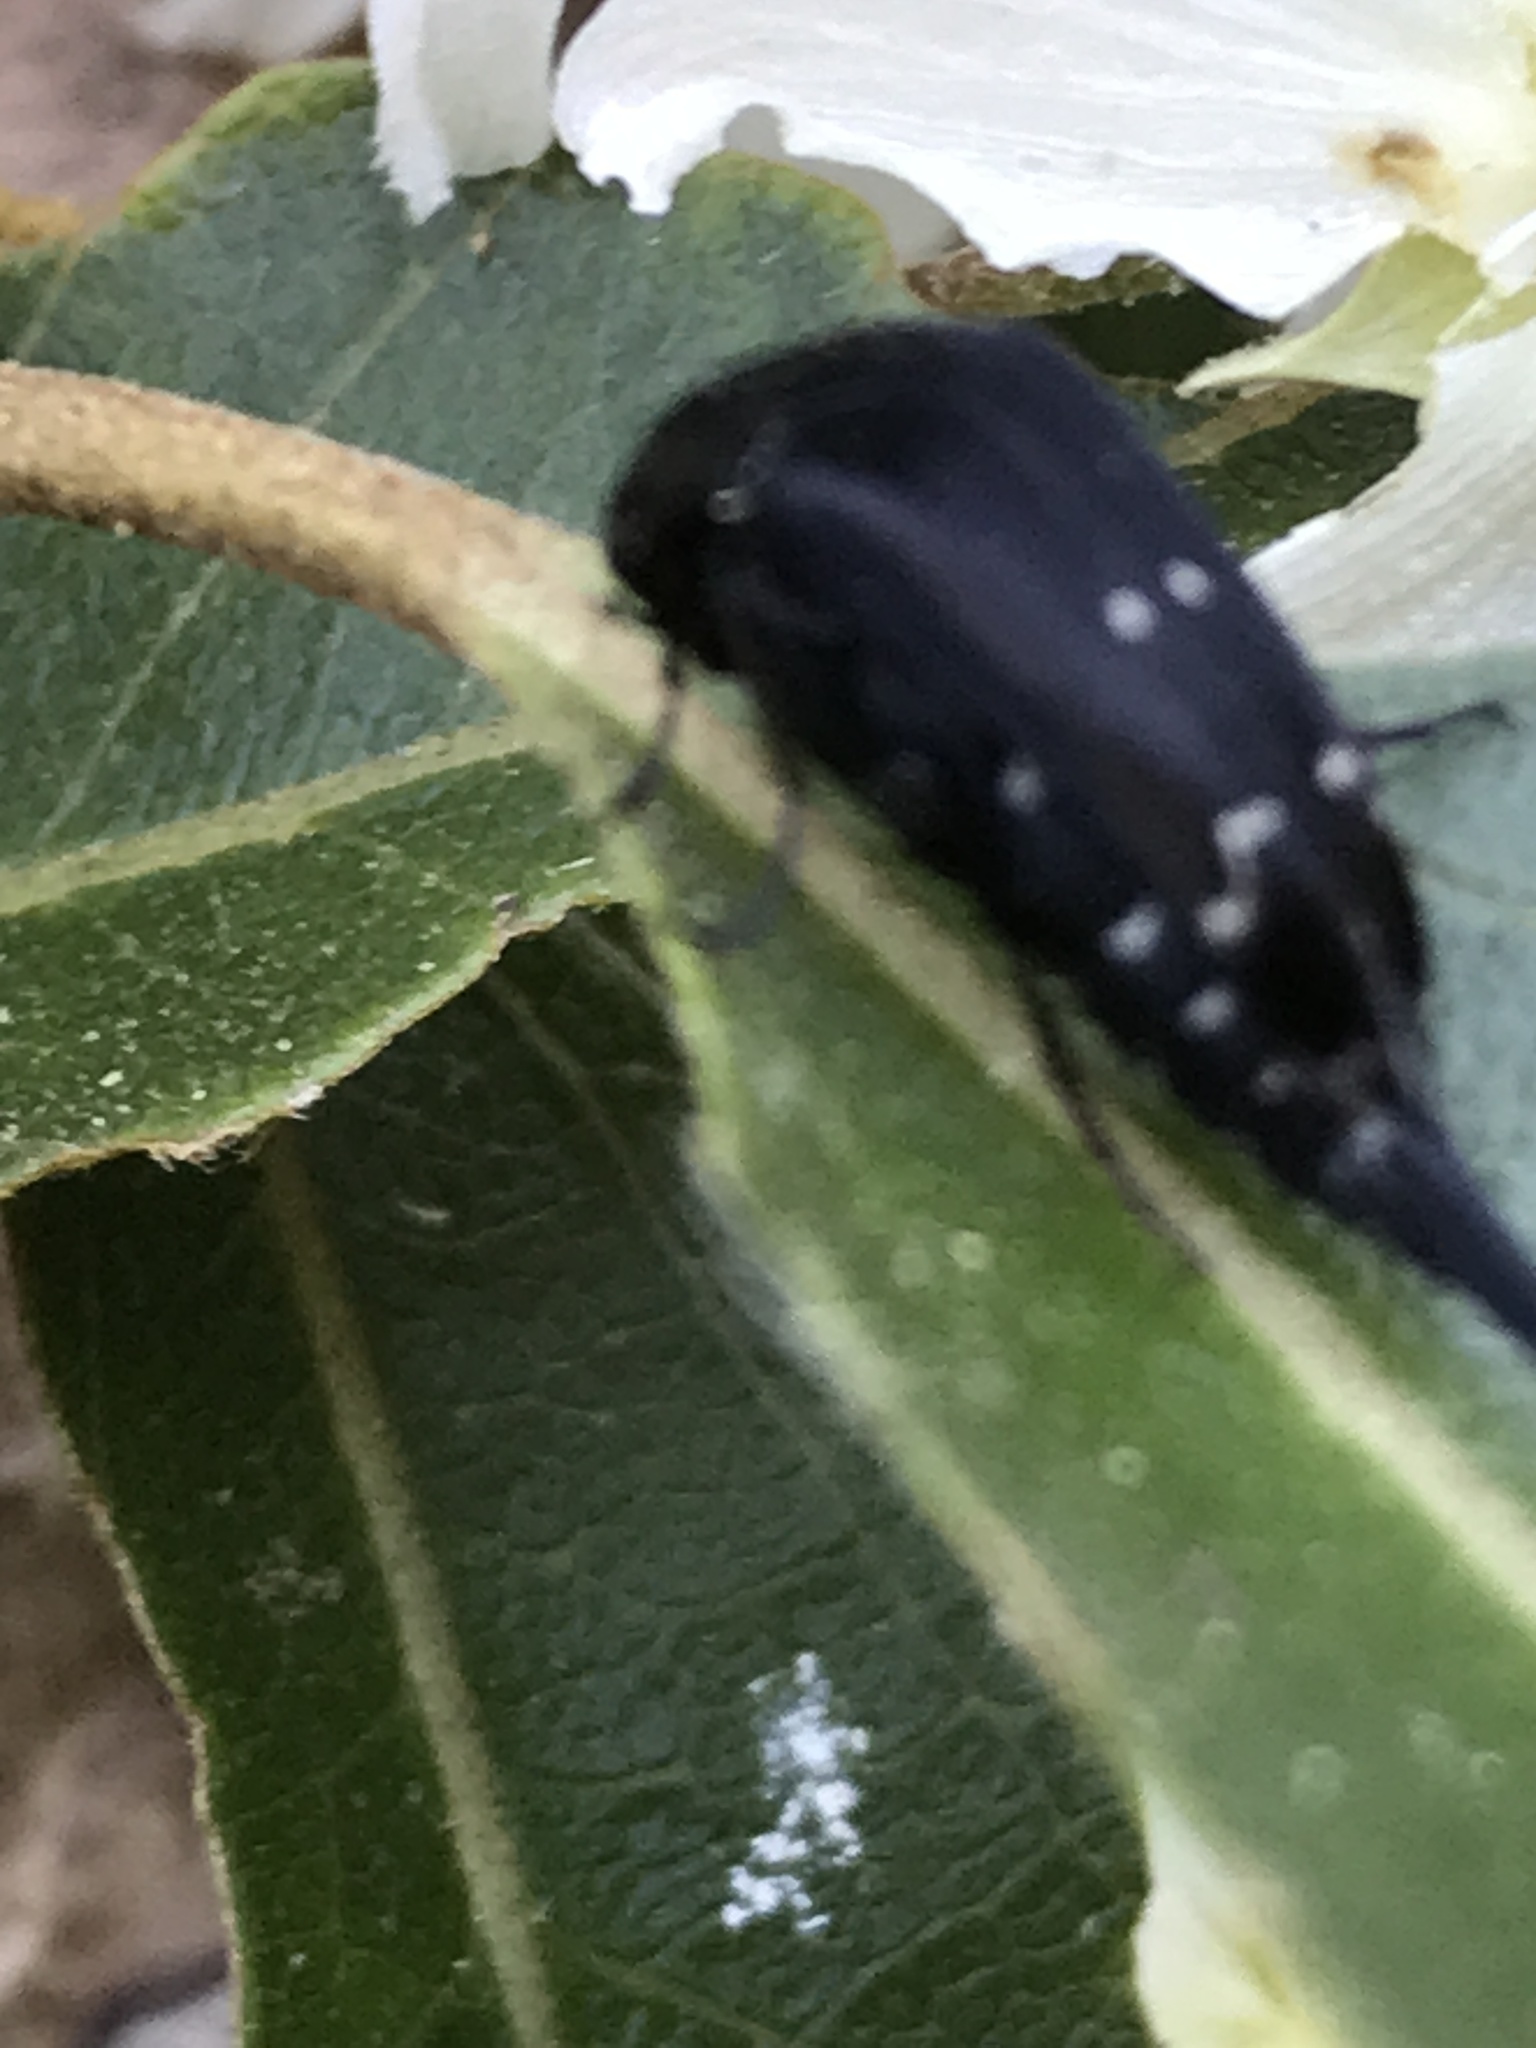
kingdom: Animalia
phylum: Arthropoda
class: Insecta
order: Coleoptera
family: Mordellidae
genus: Hoshihananomia
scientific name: Hoshihananomia
